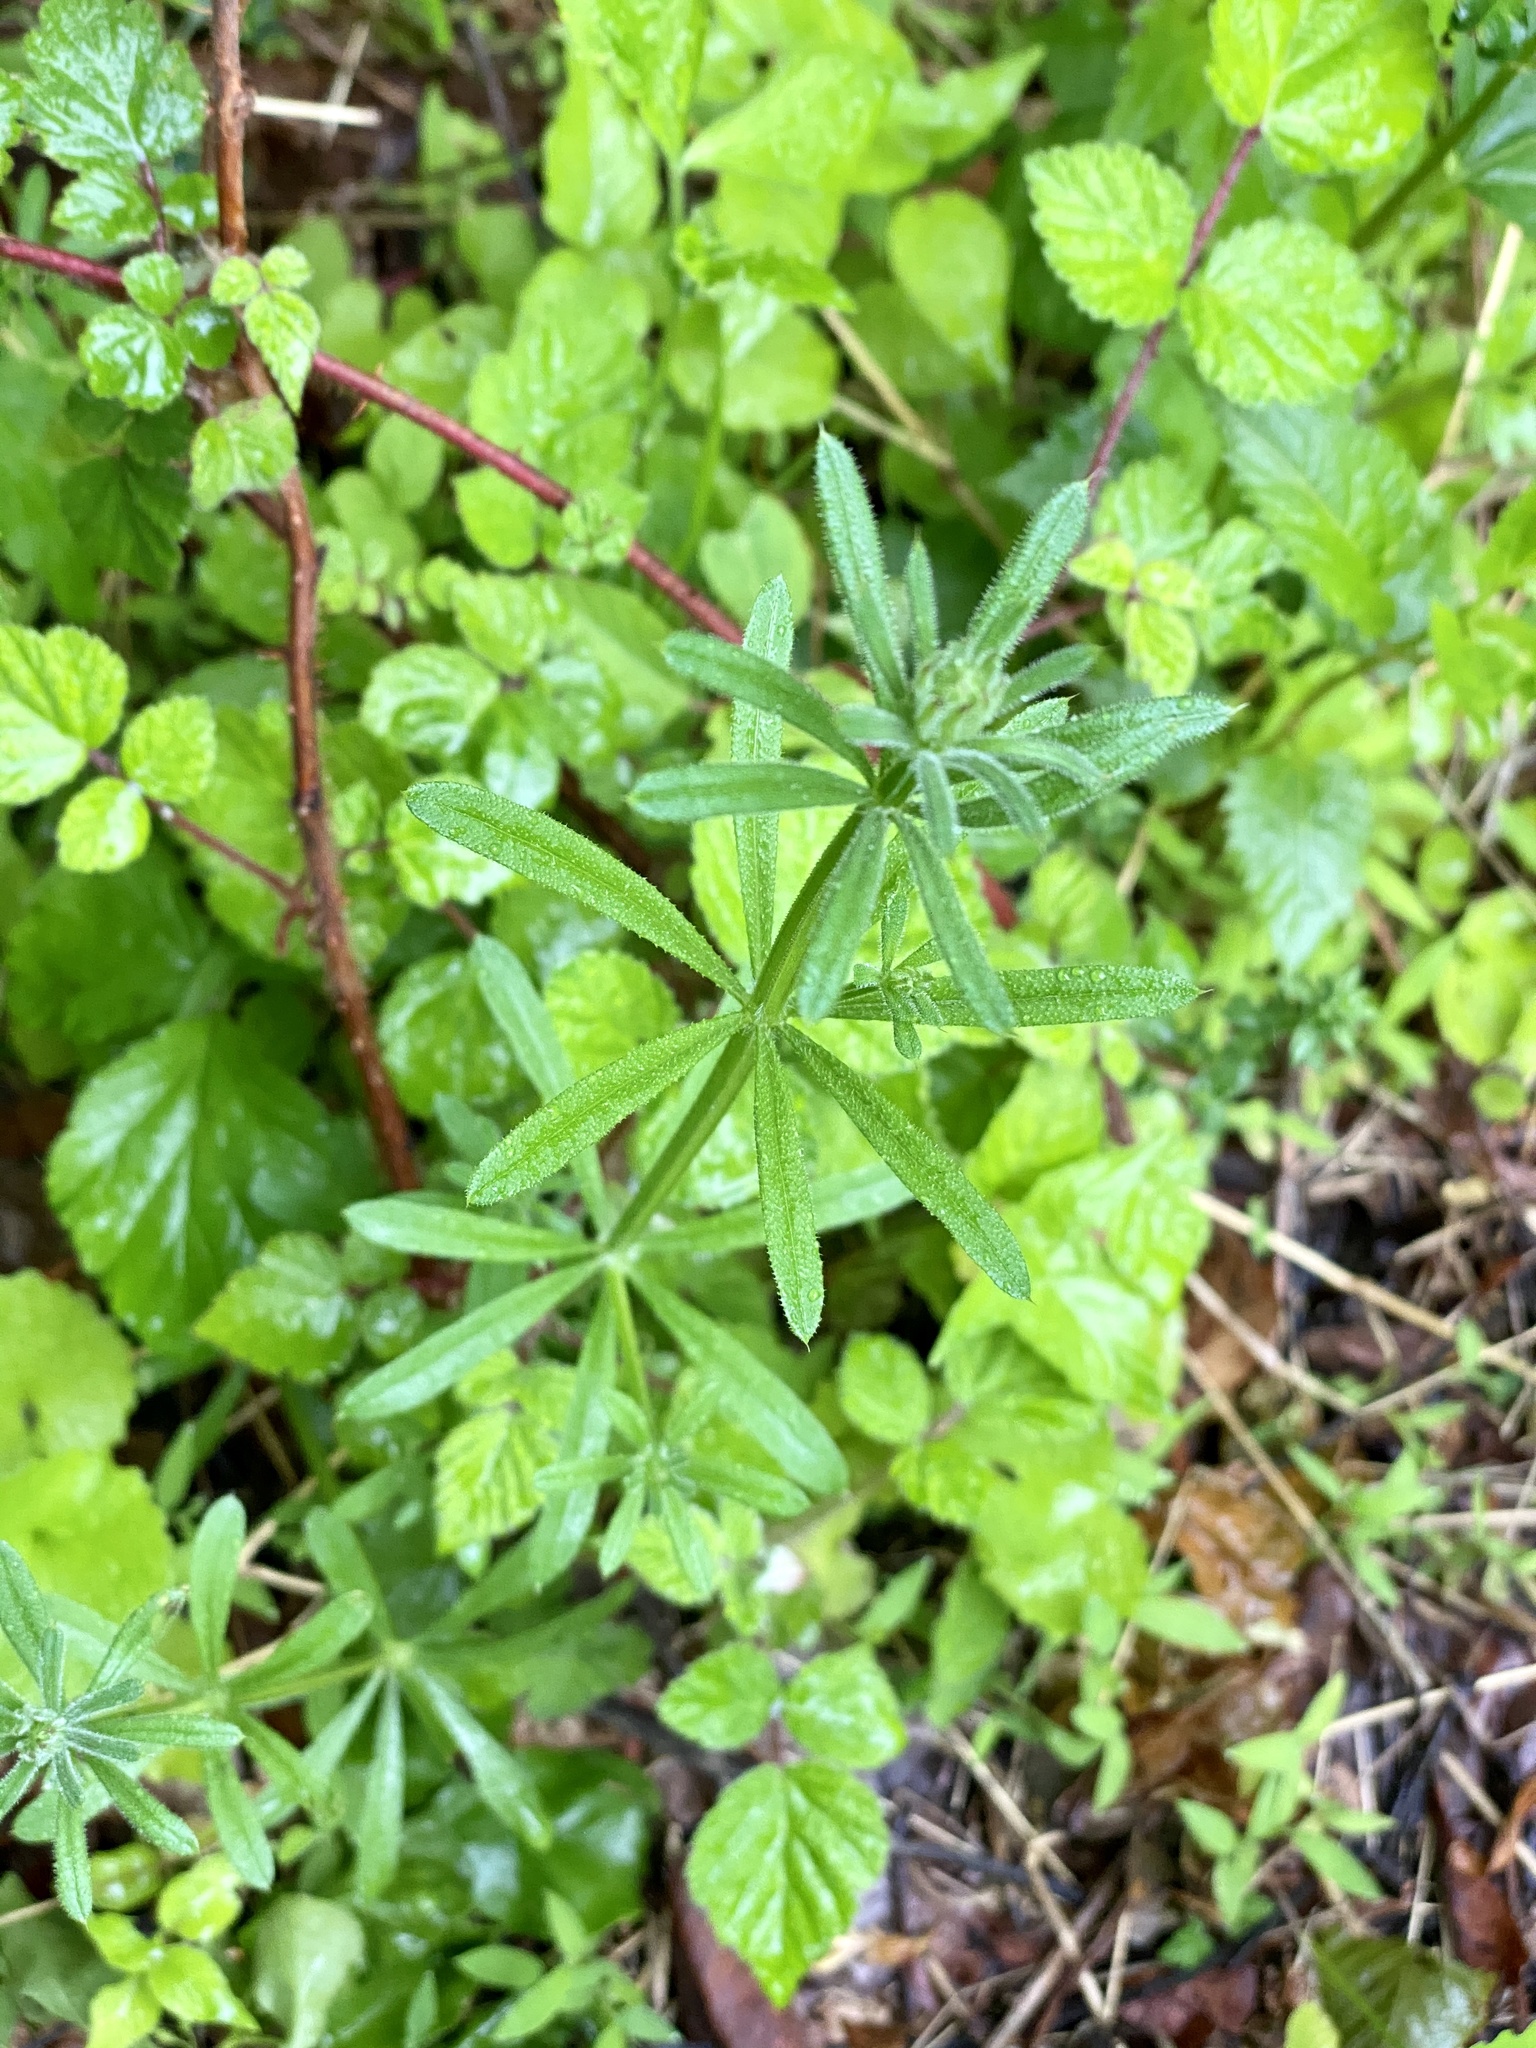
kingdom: Plantae
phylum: Tracheophyta
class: Magnoliopsida
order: Gentianales
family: Rubiaceae
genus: Galium
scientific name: Galium aparine
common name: Cleavers
